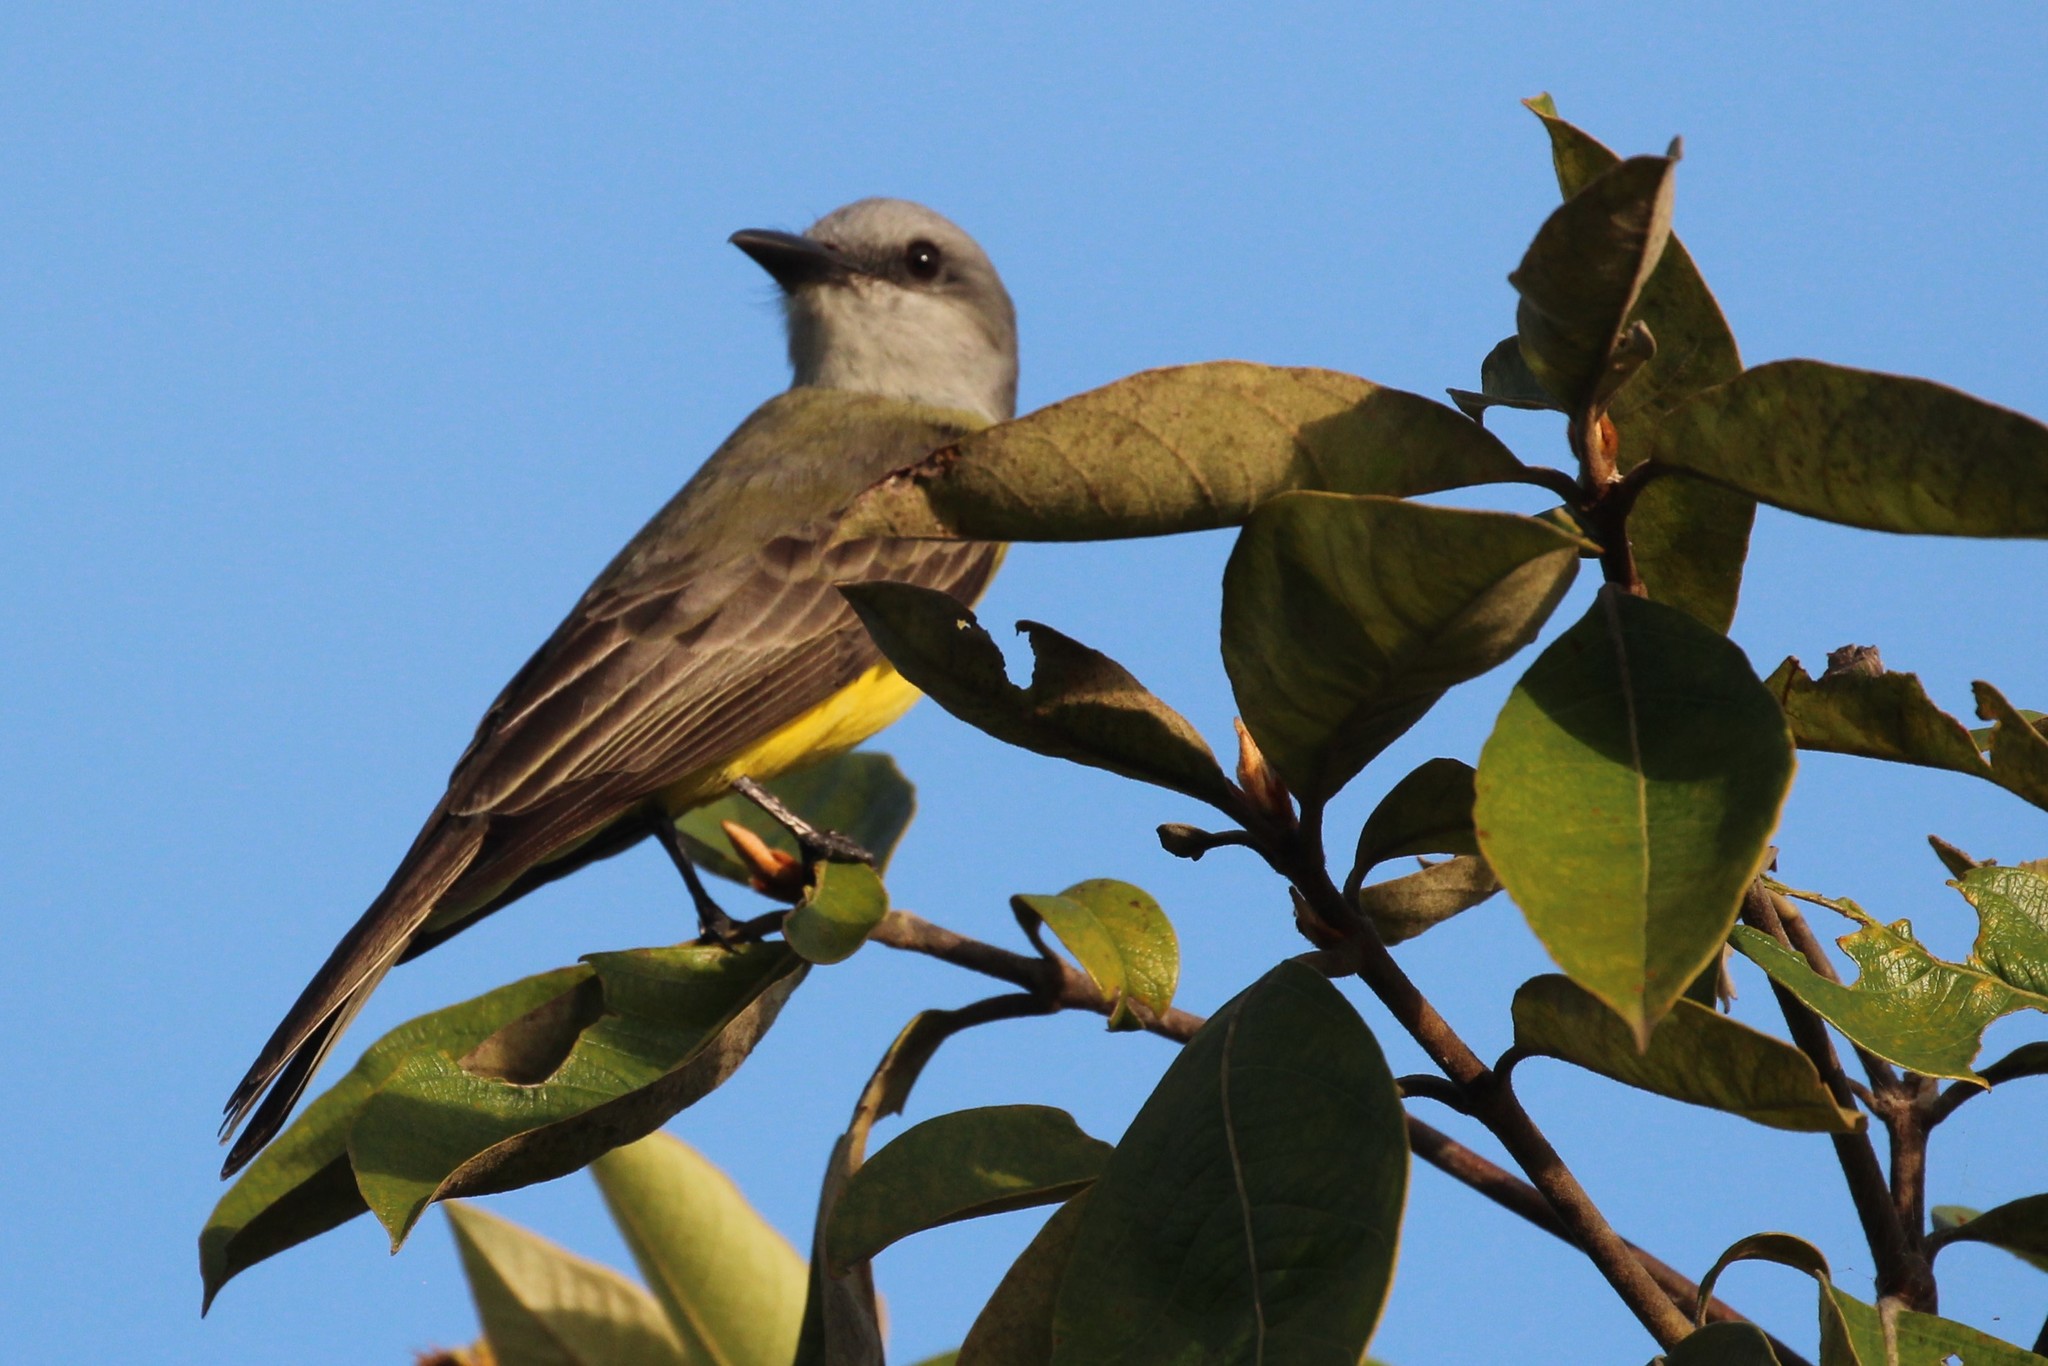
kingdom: Animalia
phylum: Chordata
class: Aves
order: Passeriformes
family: Tyrannidae
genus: Tyrannus
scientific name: Tyrannus melancholicus
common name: Tropical kingbird
